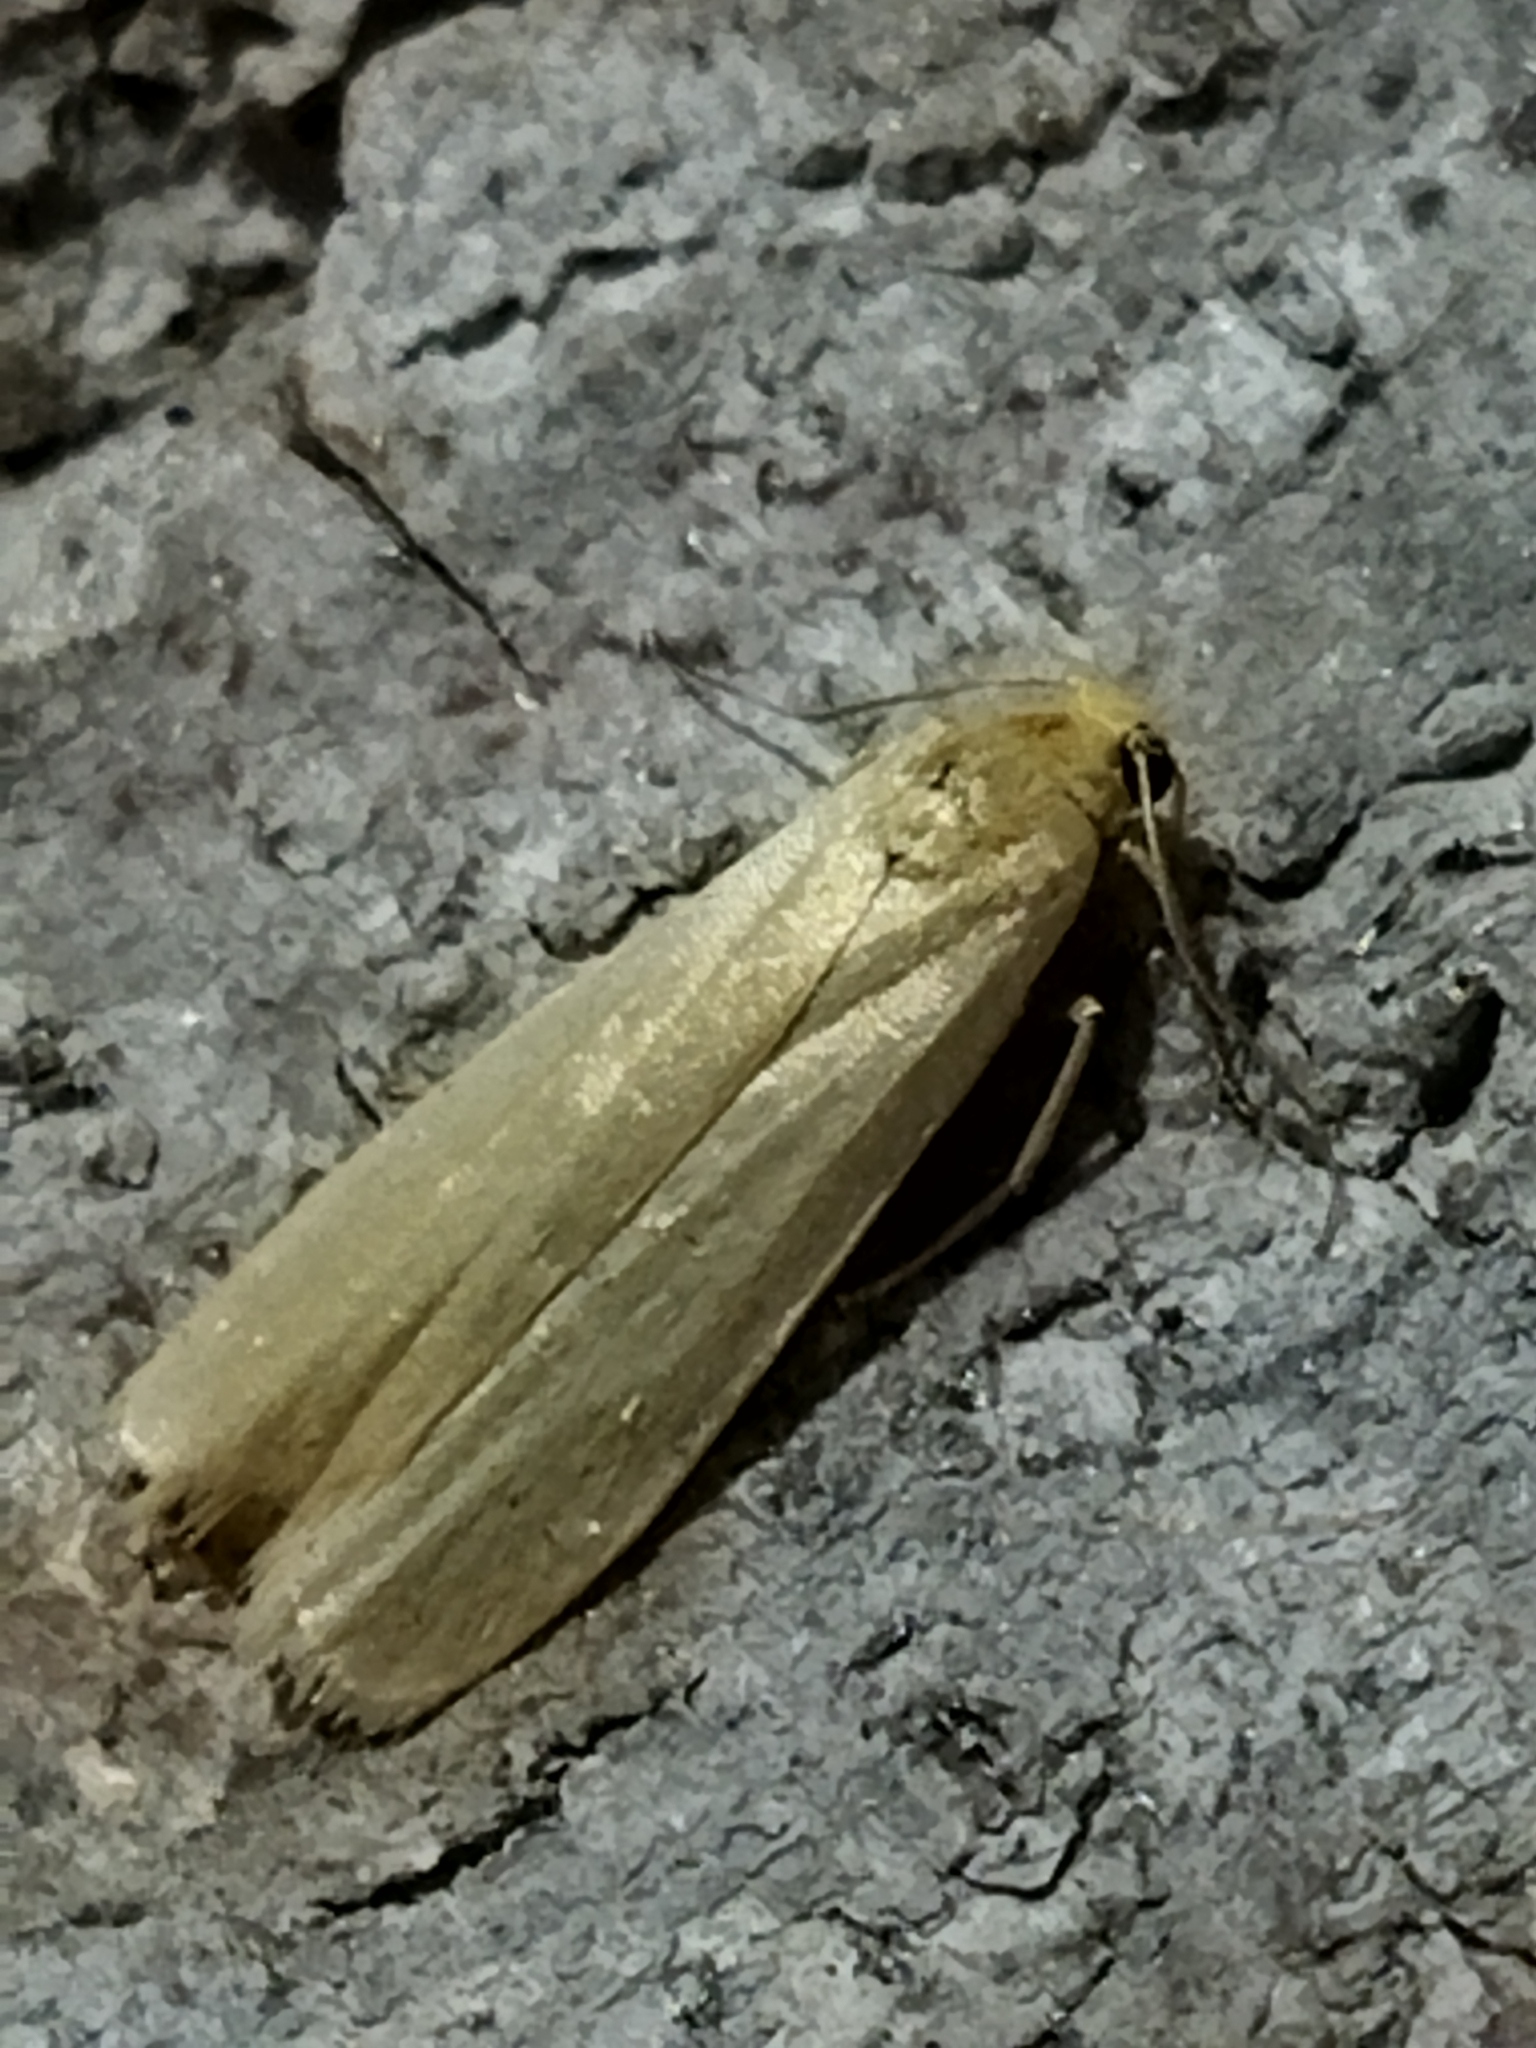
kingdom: Animalia
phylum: Arthropoda
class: Insecta
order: Lepidoptera
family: Erebidae
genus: Indalia
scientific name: Indalia pygmaeola
